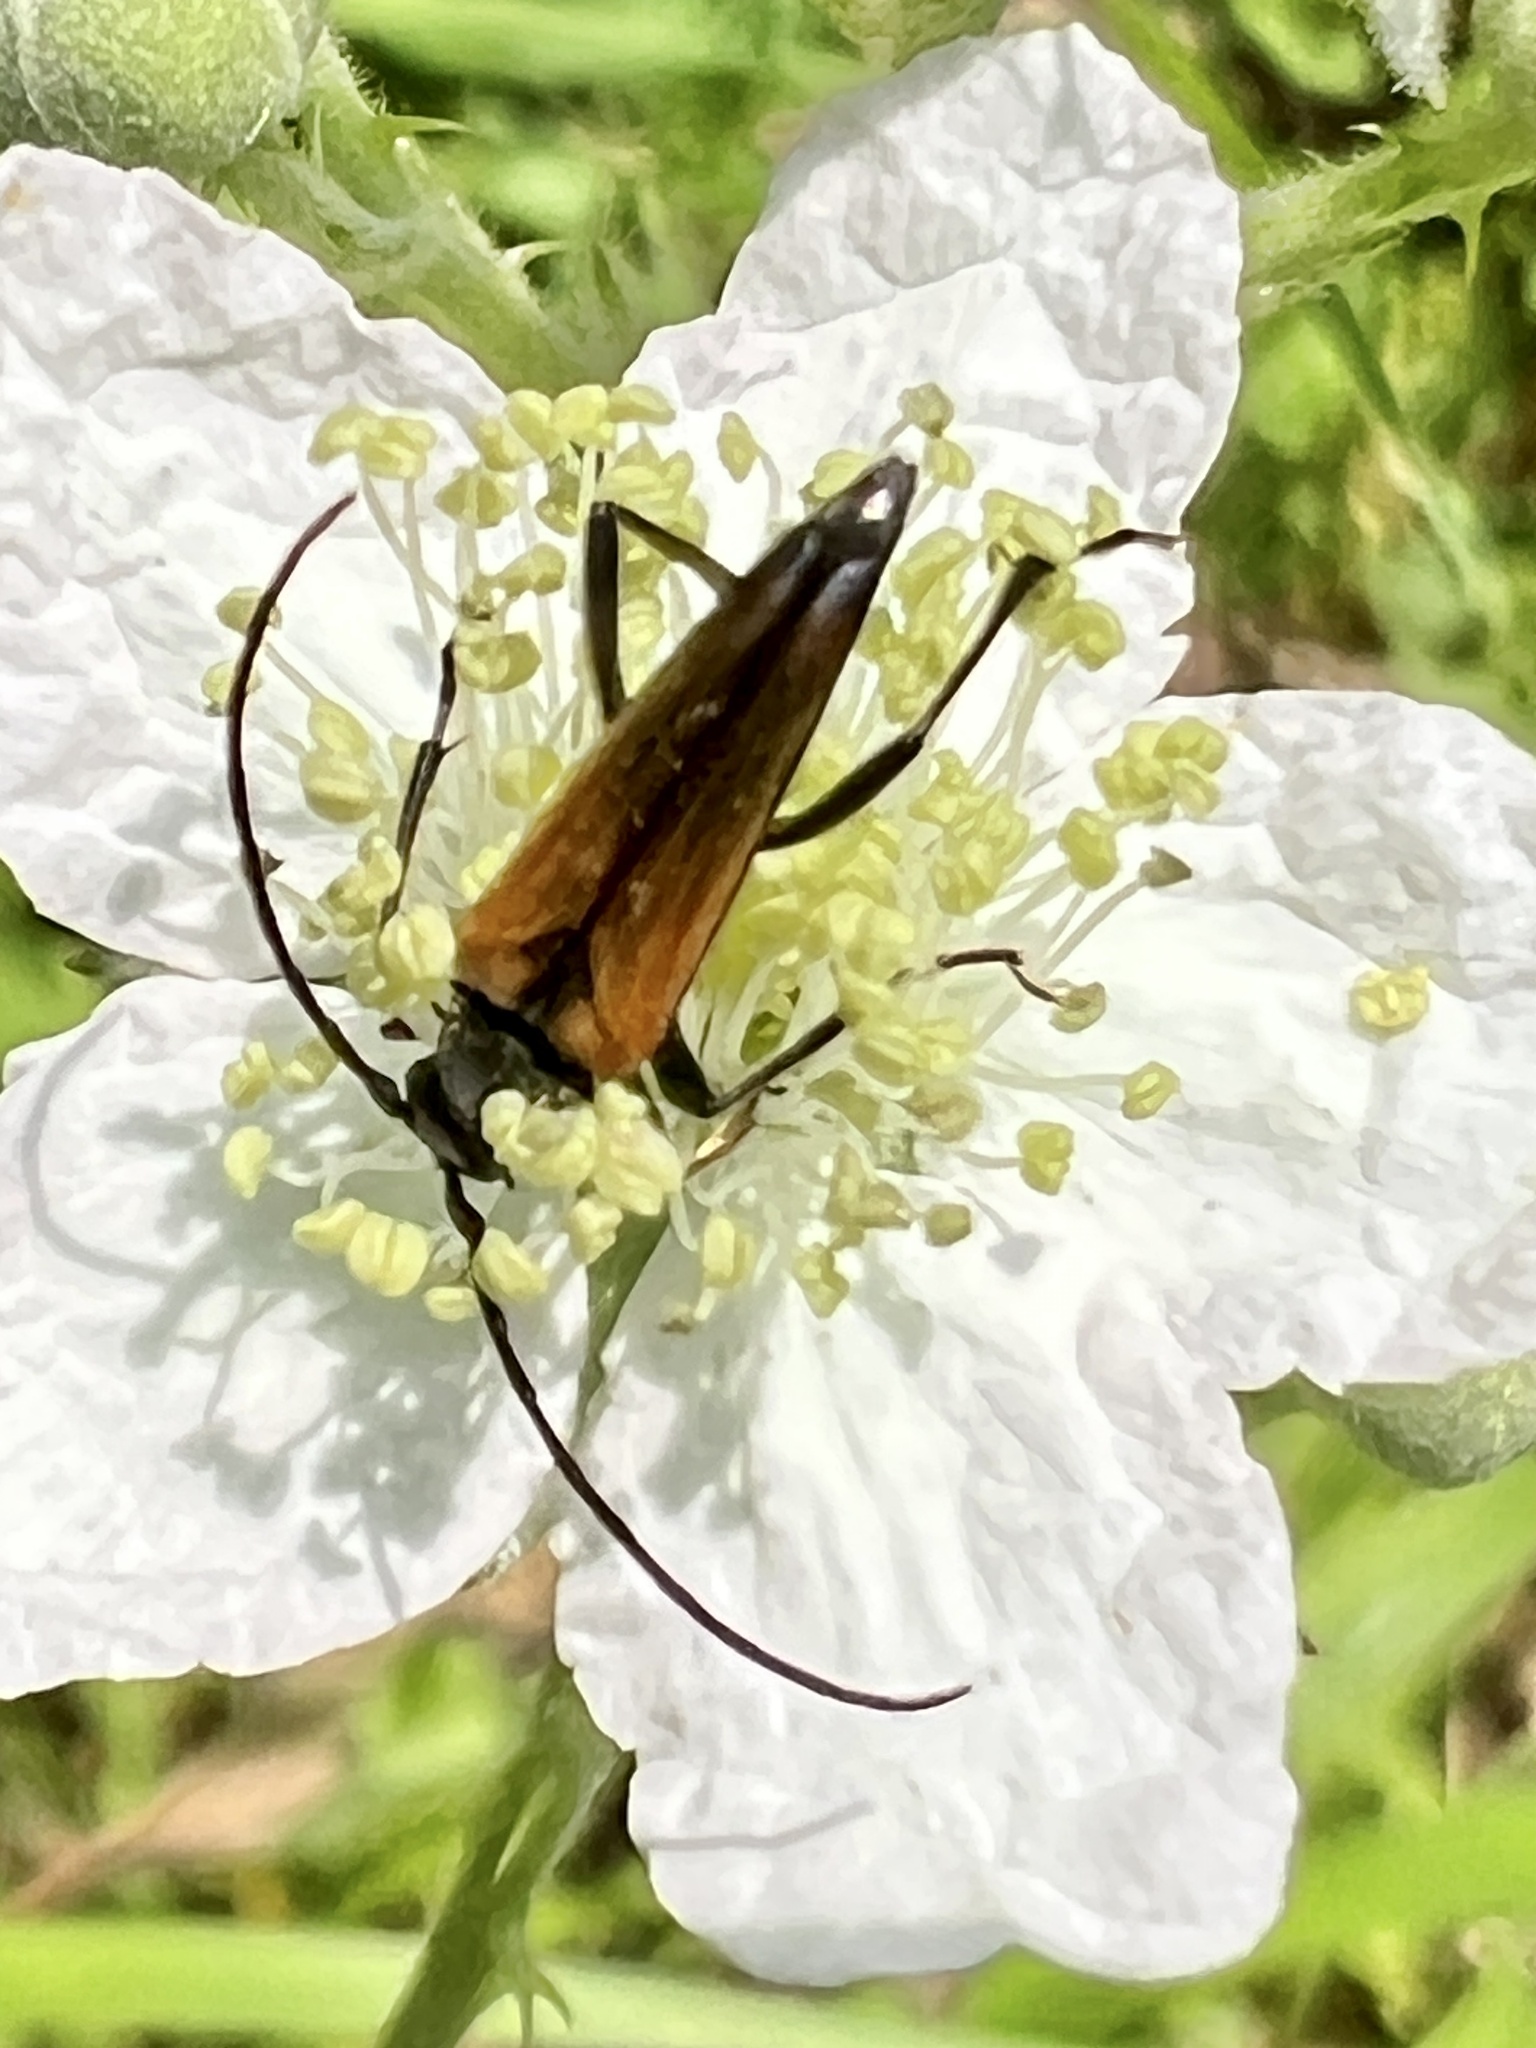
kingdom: Animalia
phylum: Arthropoda
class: Insecta
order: Coleoptera
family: Cerambycidae
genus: Stenurella
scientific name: Stenurella melanura
